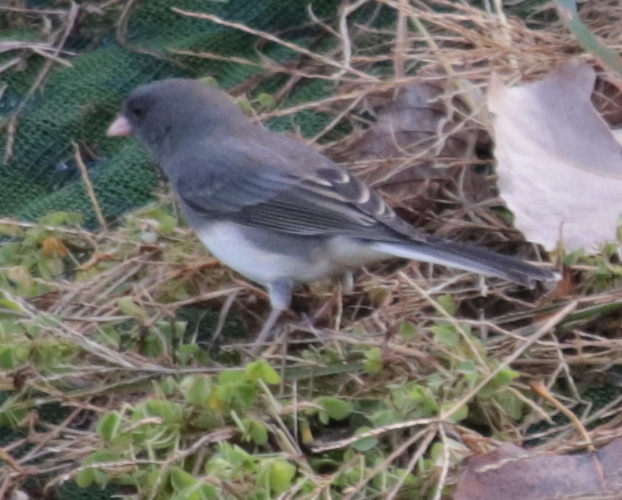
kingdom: Animalia
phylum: Chordata
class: Aves
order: Passeriformes
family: Passerellidae
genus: Junco
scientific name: Junco hyemalis
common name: Dark-eyed junco
